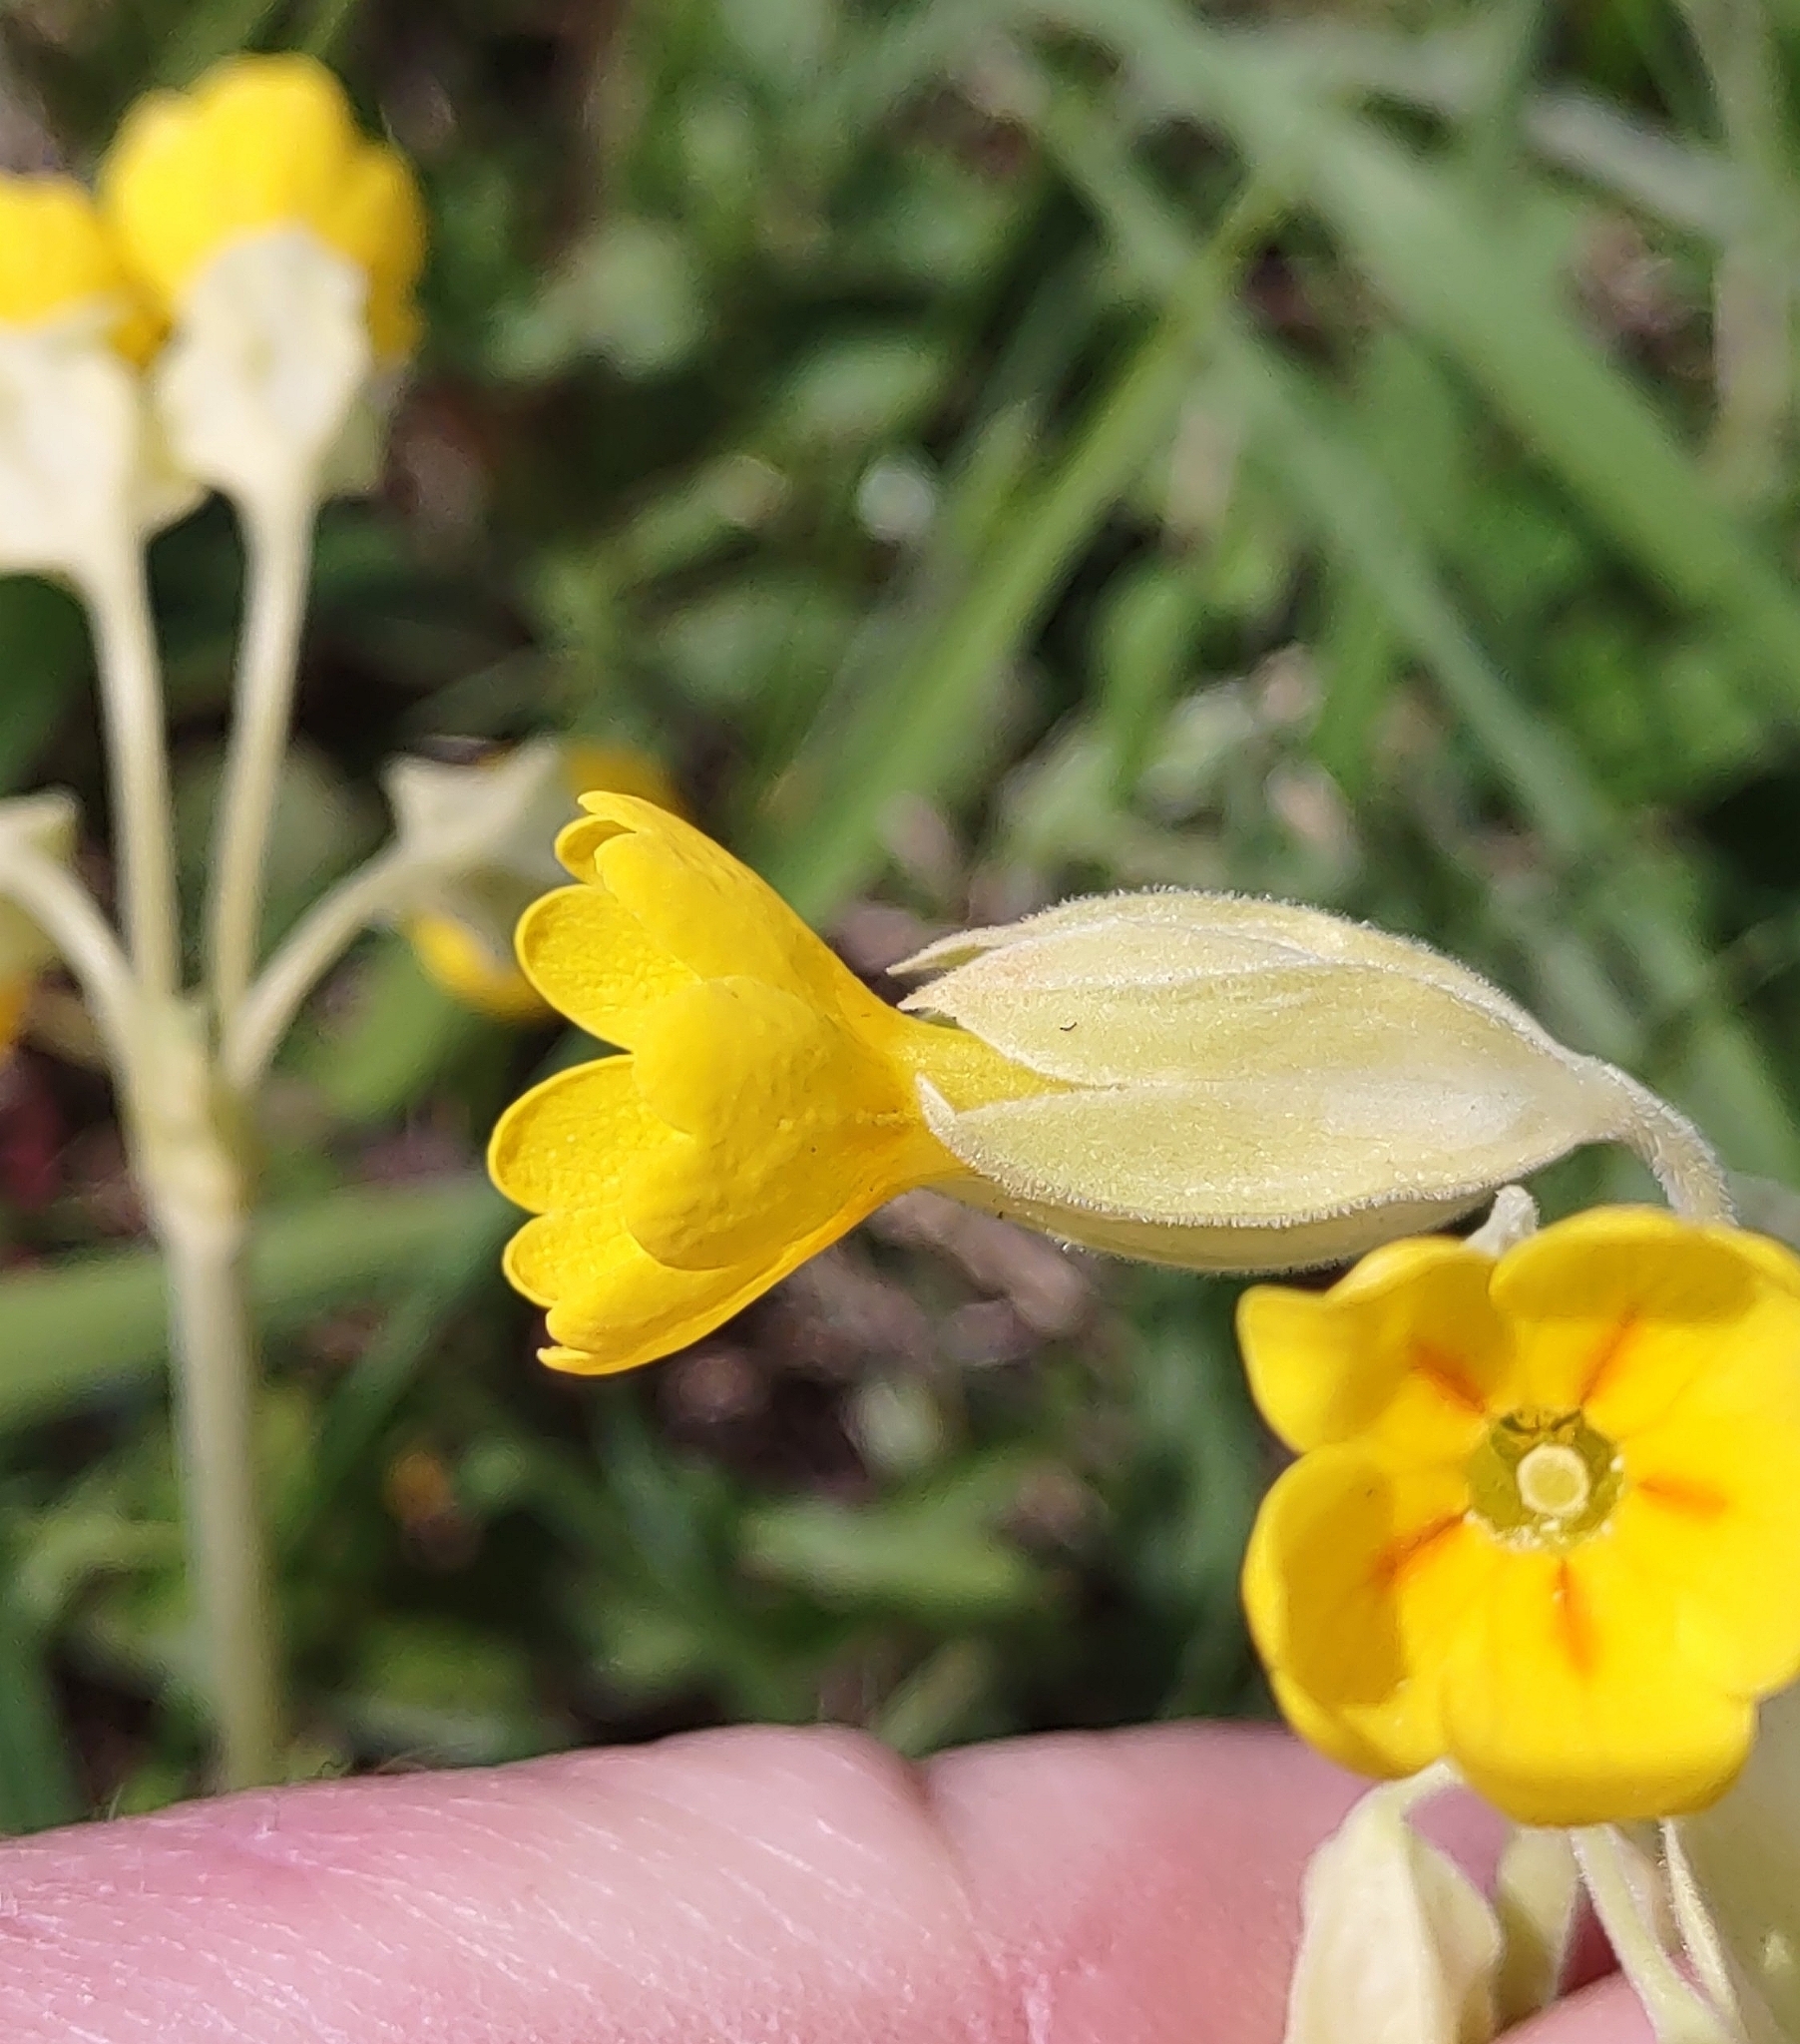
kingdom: Plantae
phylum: Tracheophyta
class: Magnoliopsida
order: Ericales
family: Primulaceae
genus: Primula
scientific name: Primula veris
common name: Cowslip
